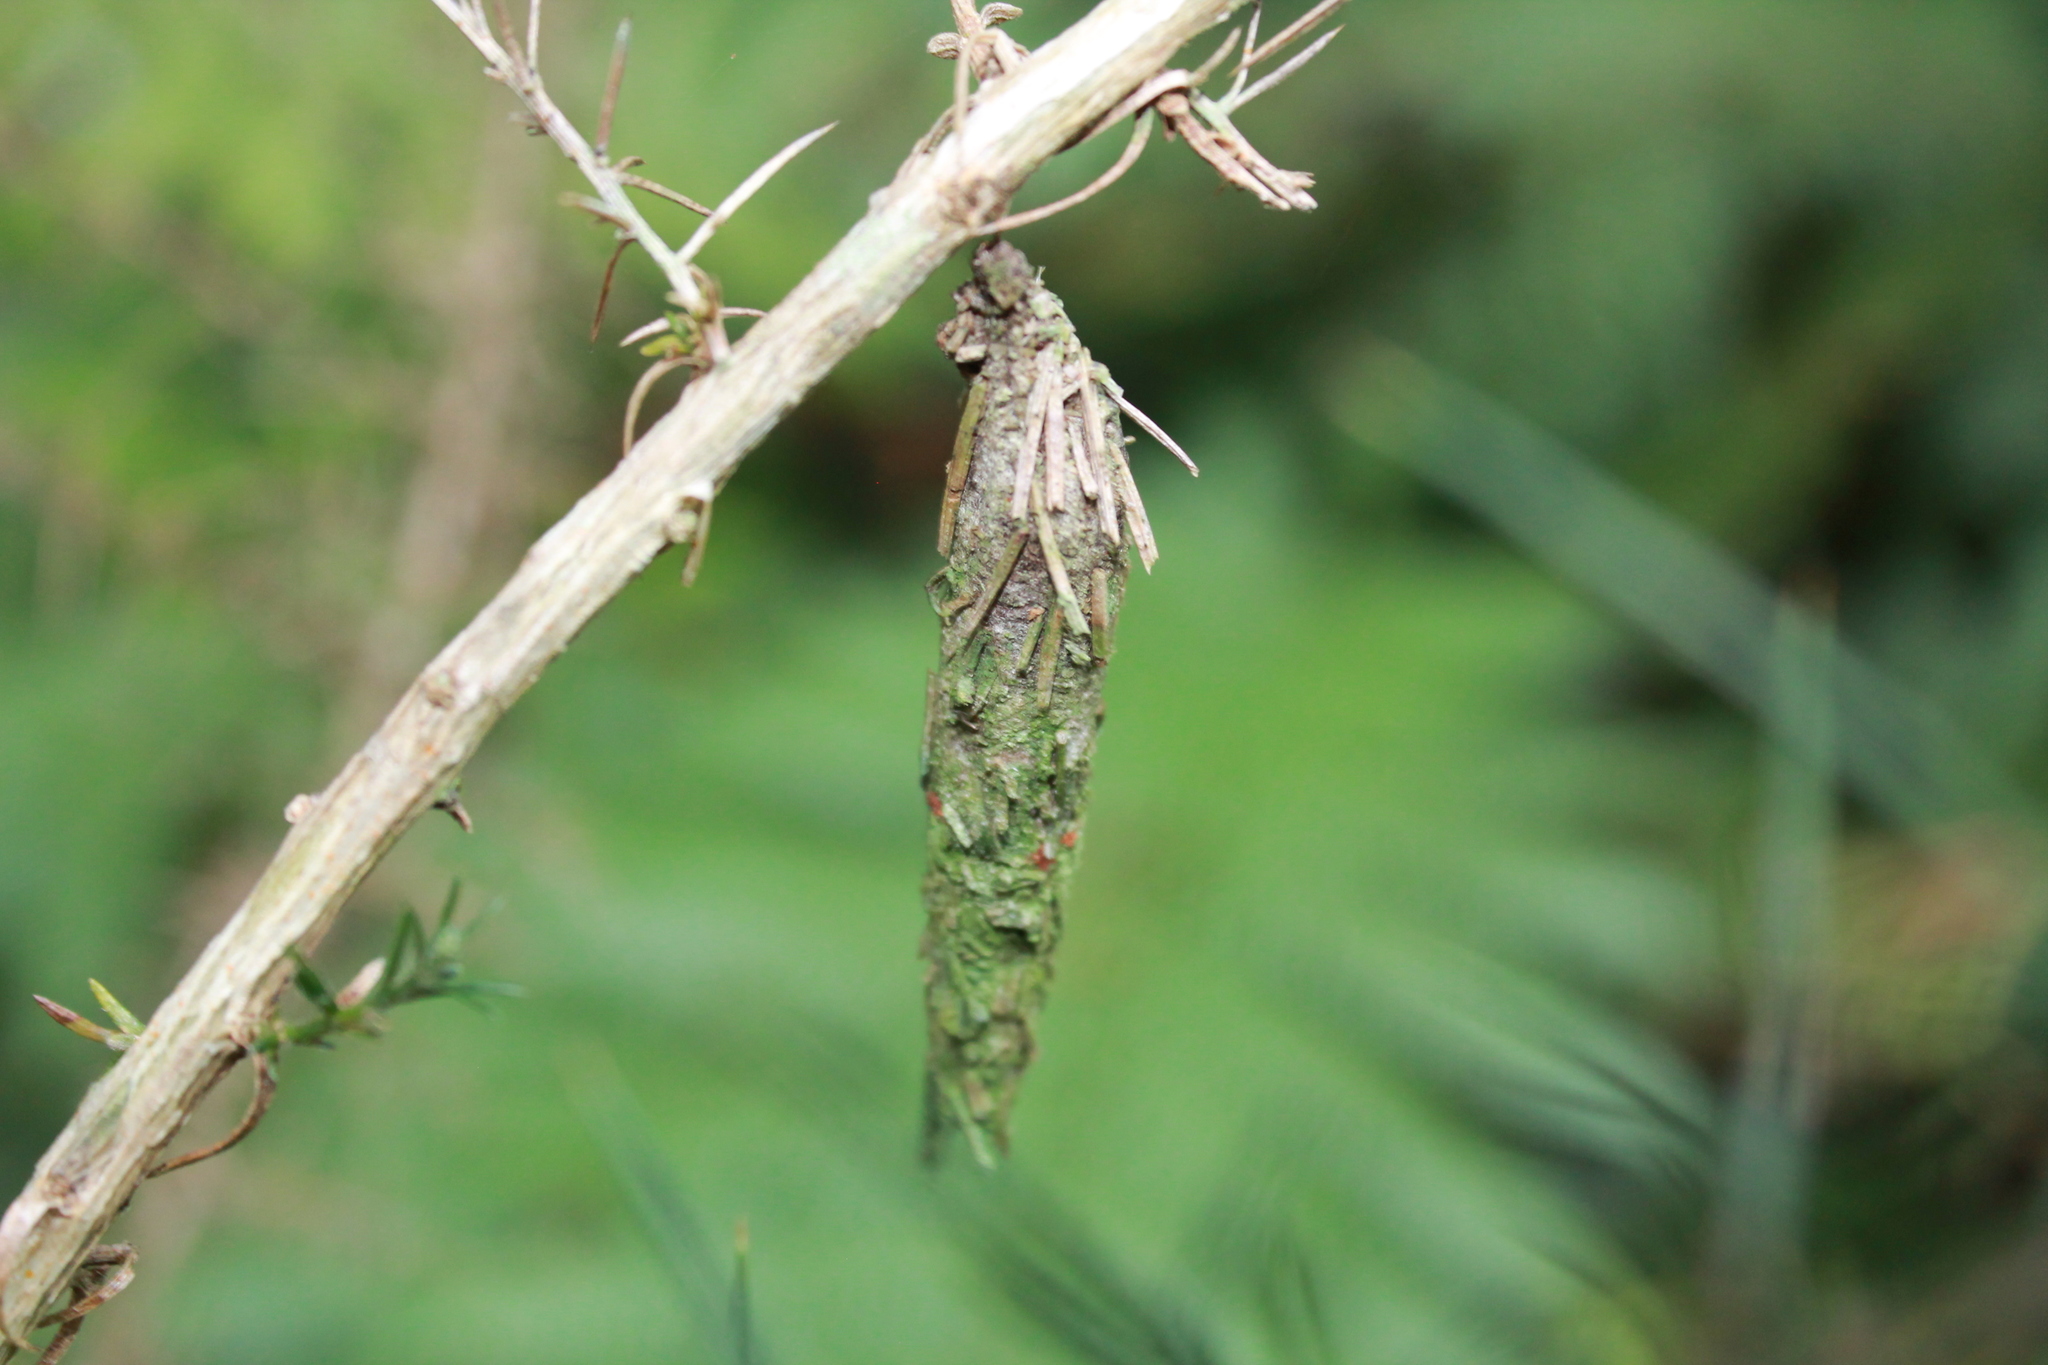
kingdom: Animalia
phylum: Arthropoda
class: Insecta
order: Lepidoptera
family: Psychidae
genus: Liothula
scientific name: Liothula omnivora
